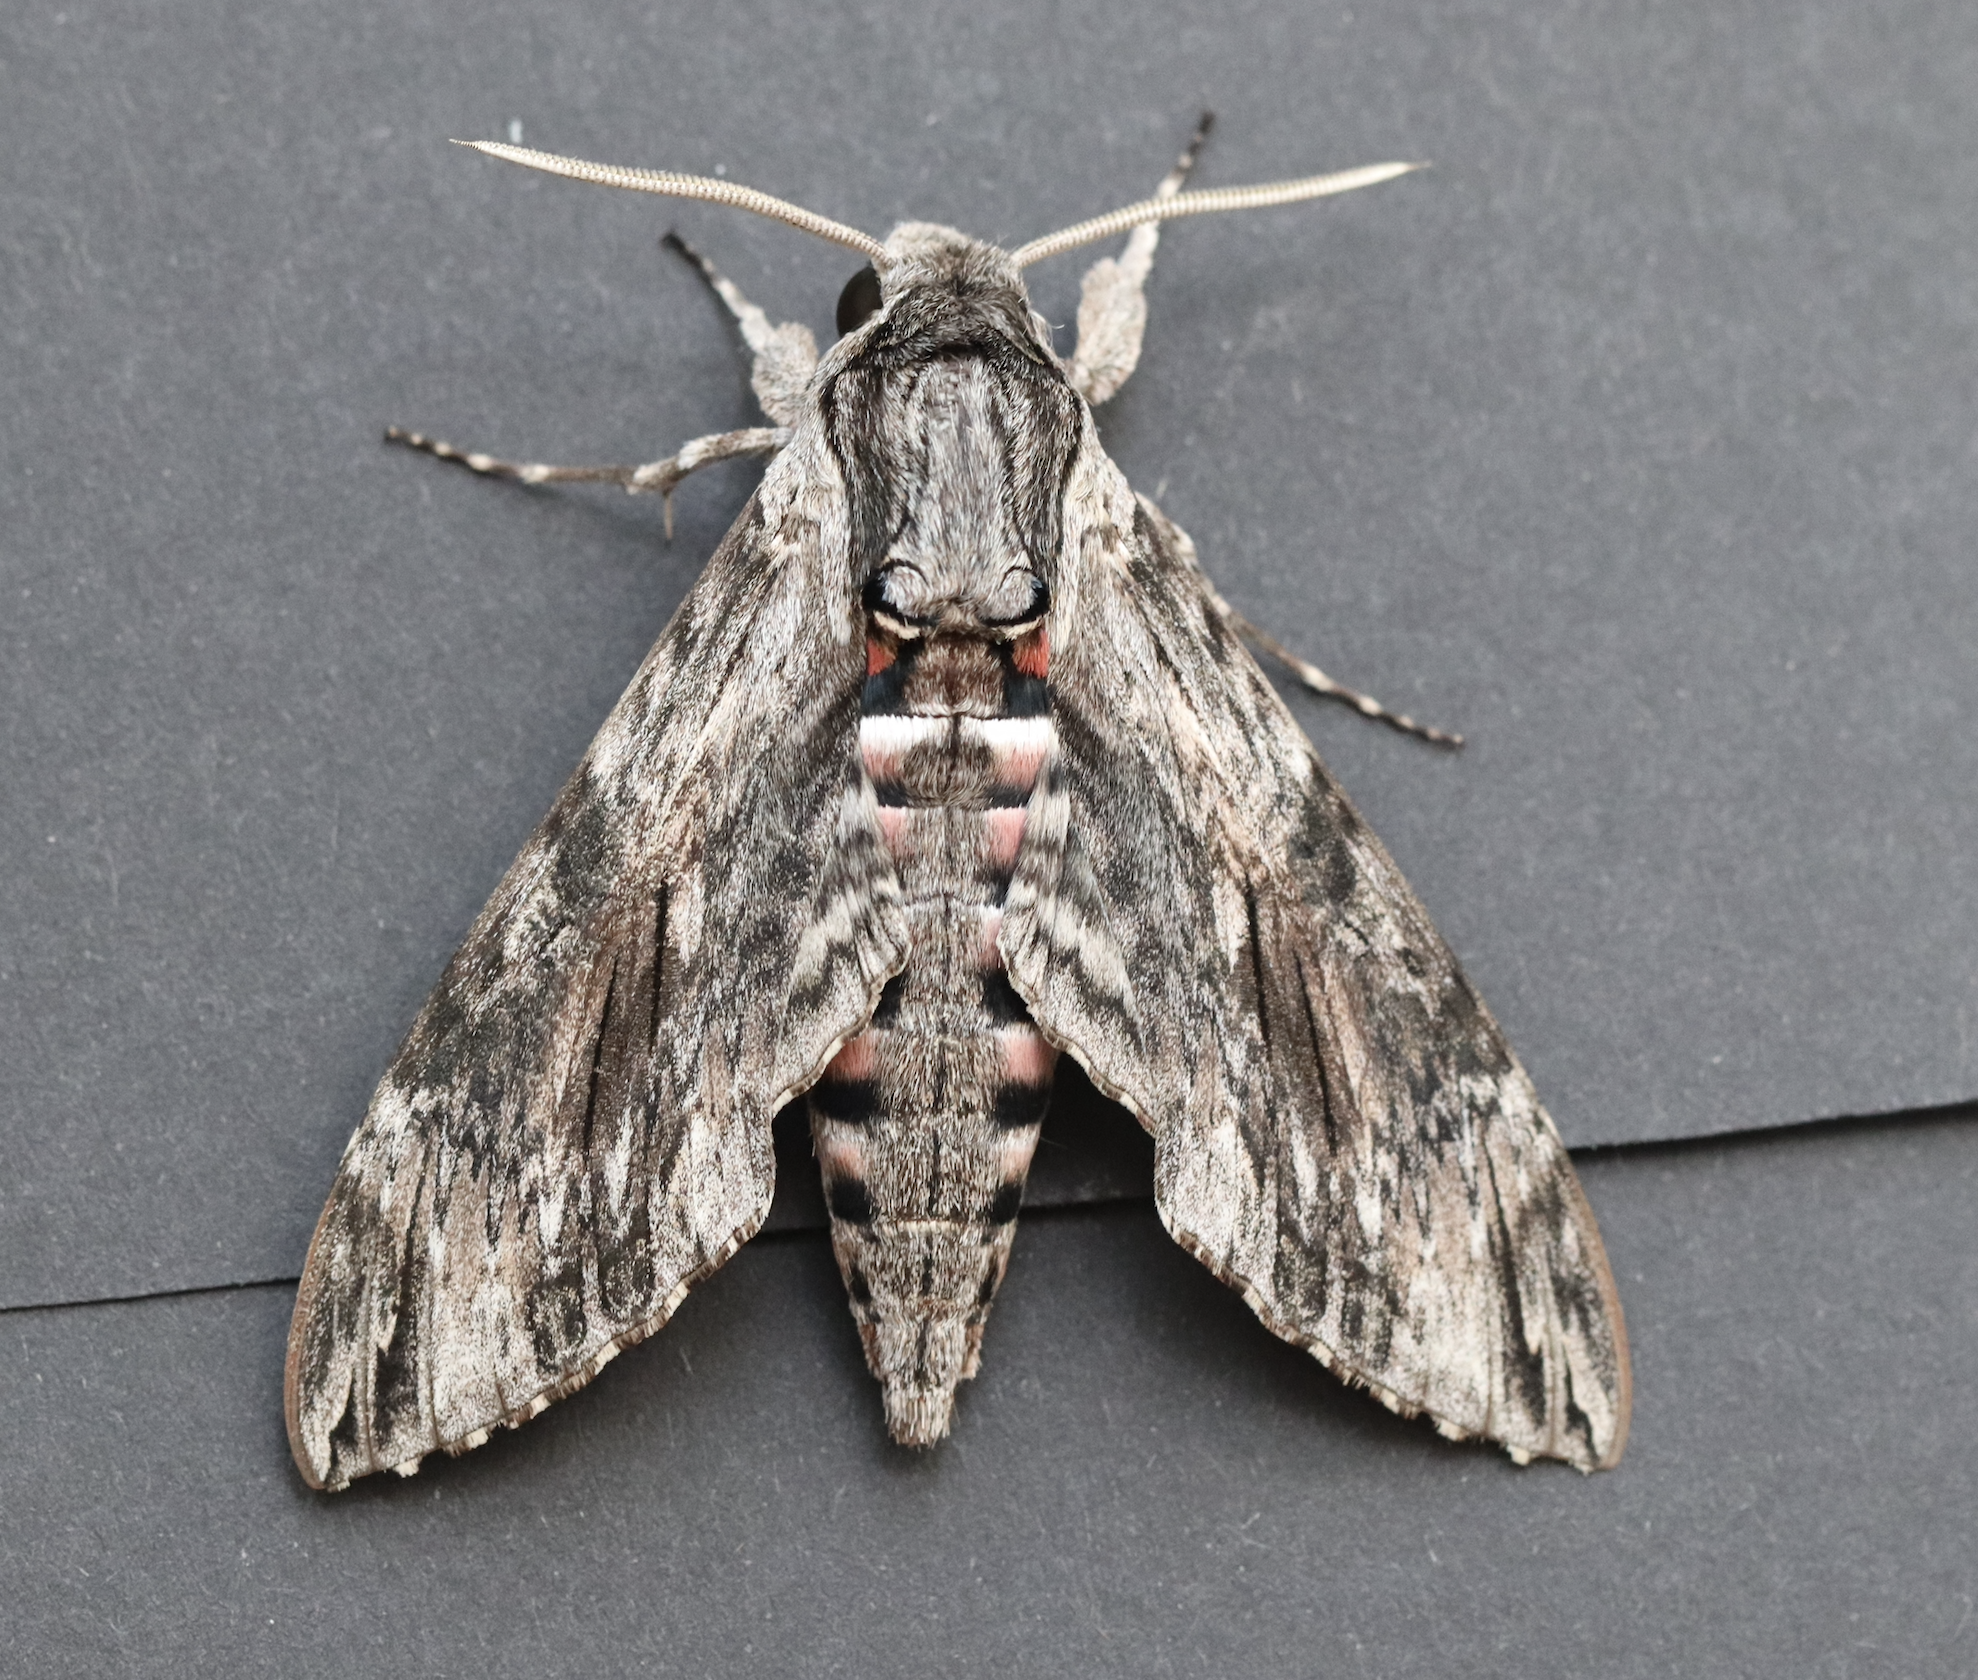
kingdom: Animalia
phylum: Arthropoda
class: Insecta
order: Lepidoptera
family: Sphingidae
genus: Agrius
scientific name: Agrius convolvuli
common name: Convolvulus hawkmoth
